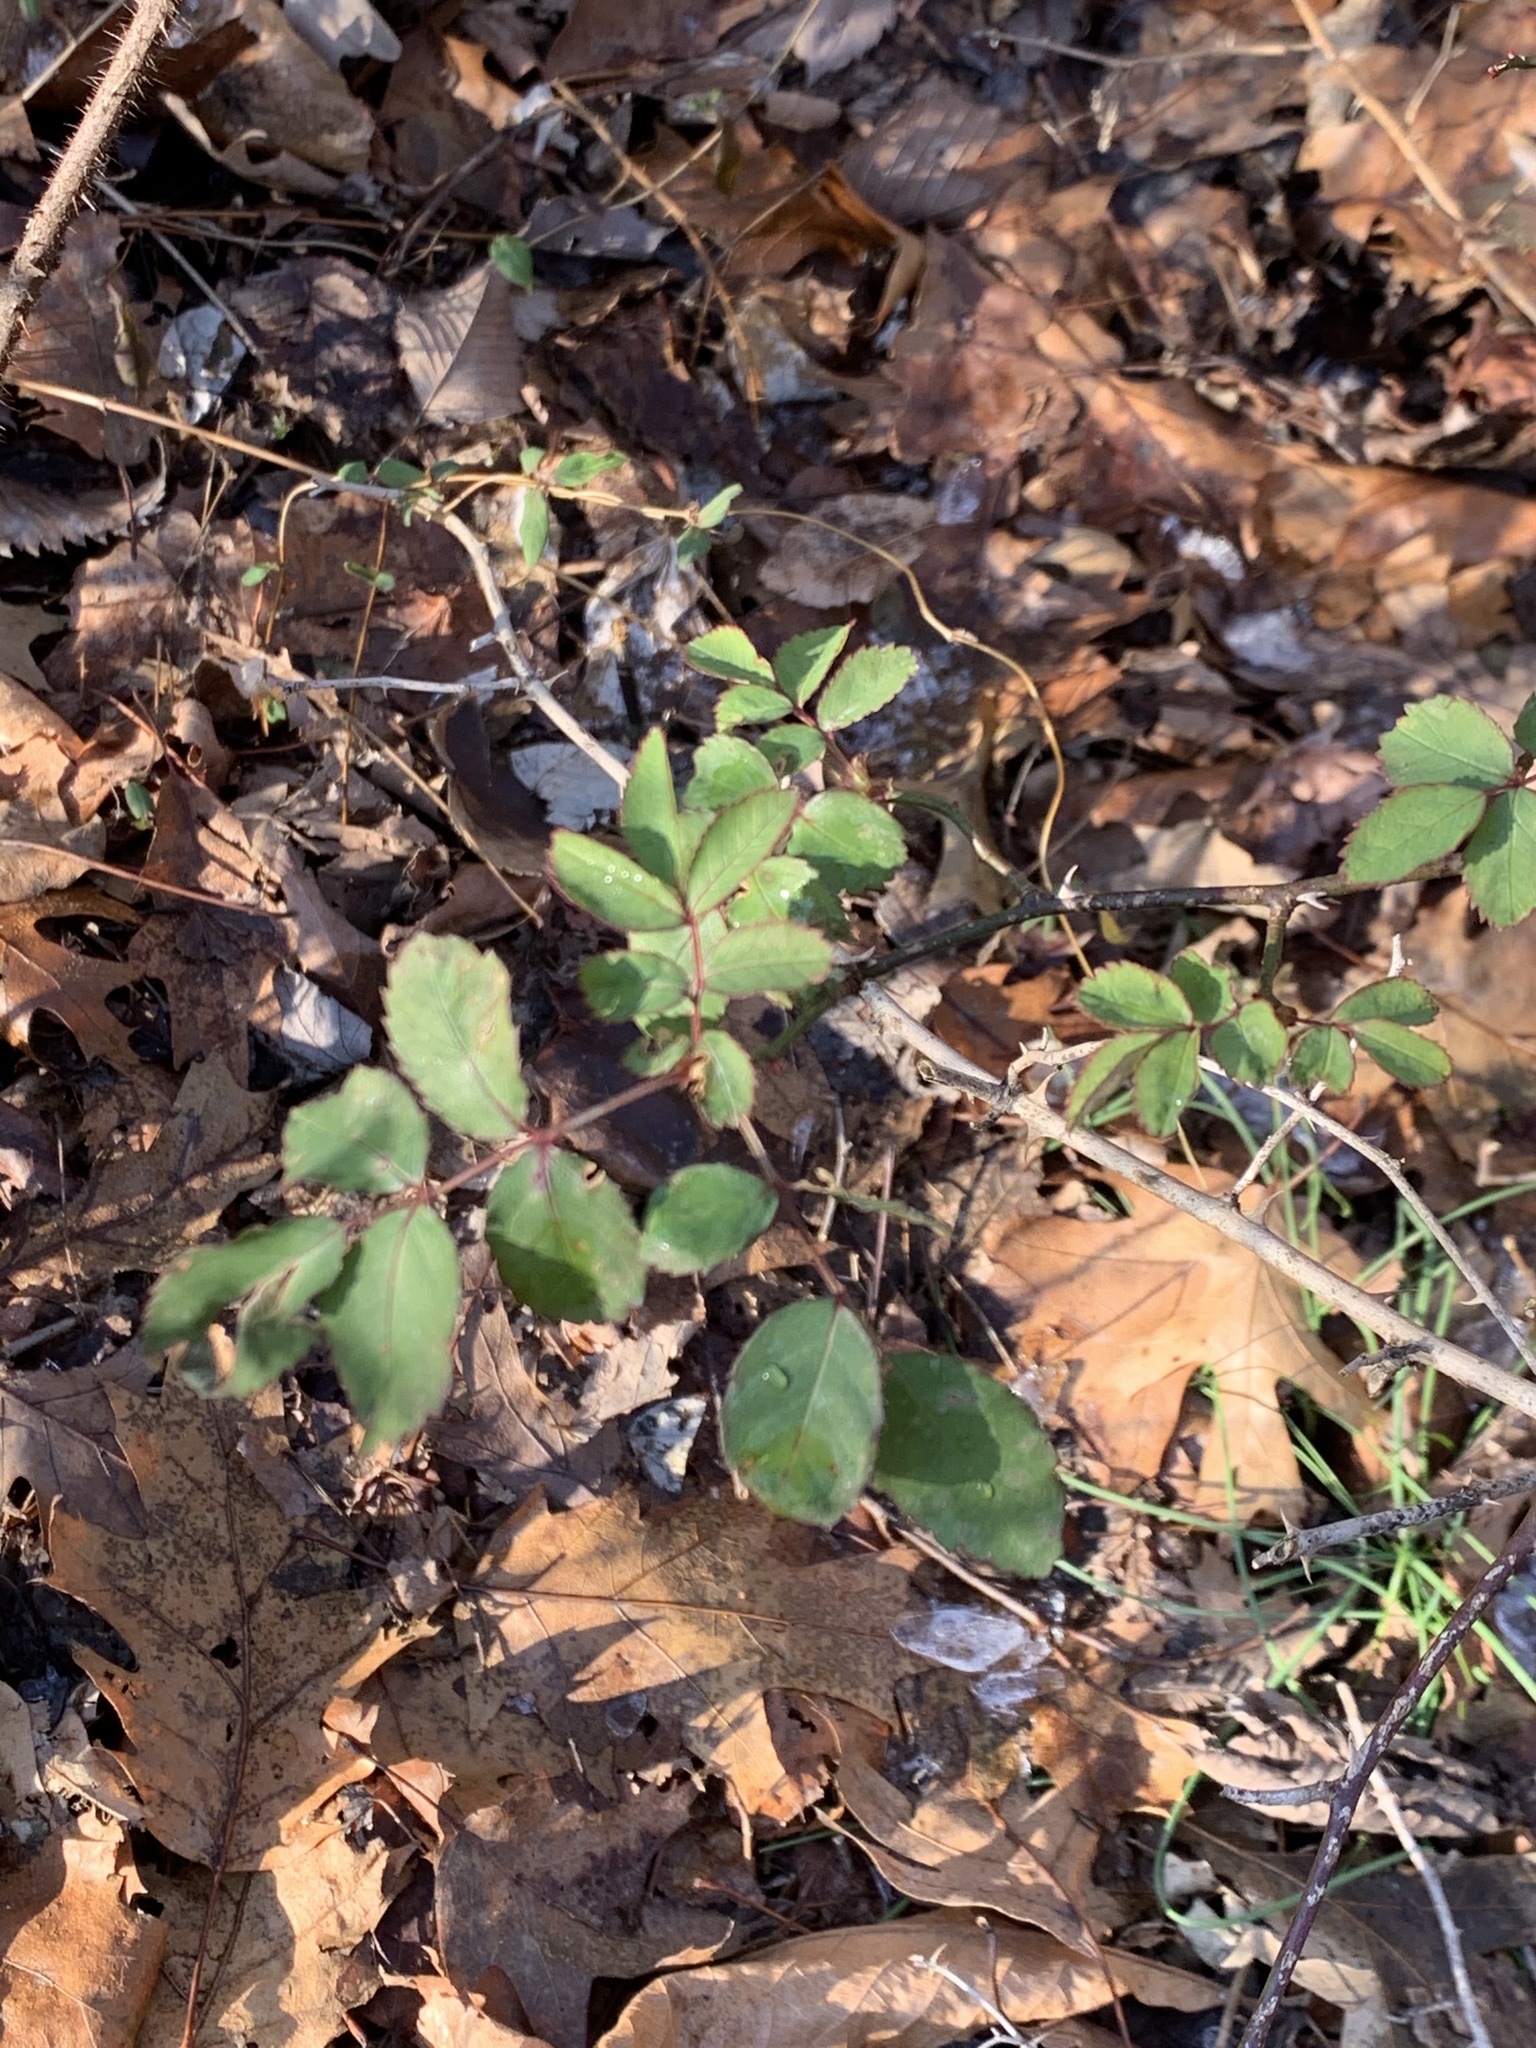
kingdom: Plantae
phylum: Tracheophyta
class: Magnoliopsida
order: Rosales
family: Rosaceae
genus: Rosa
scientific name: Rosa multiflora
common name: Multiflora rose
